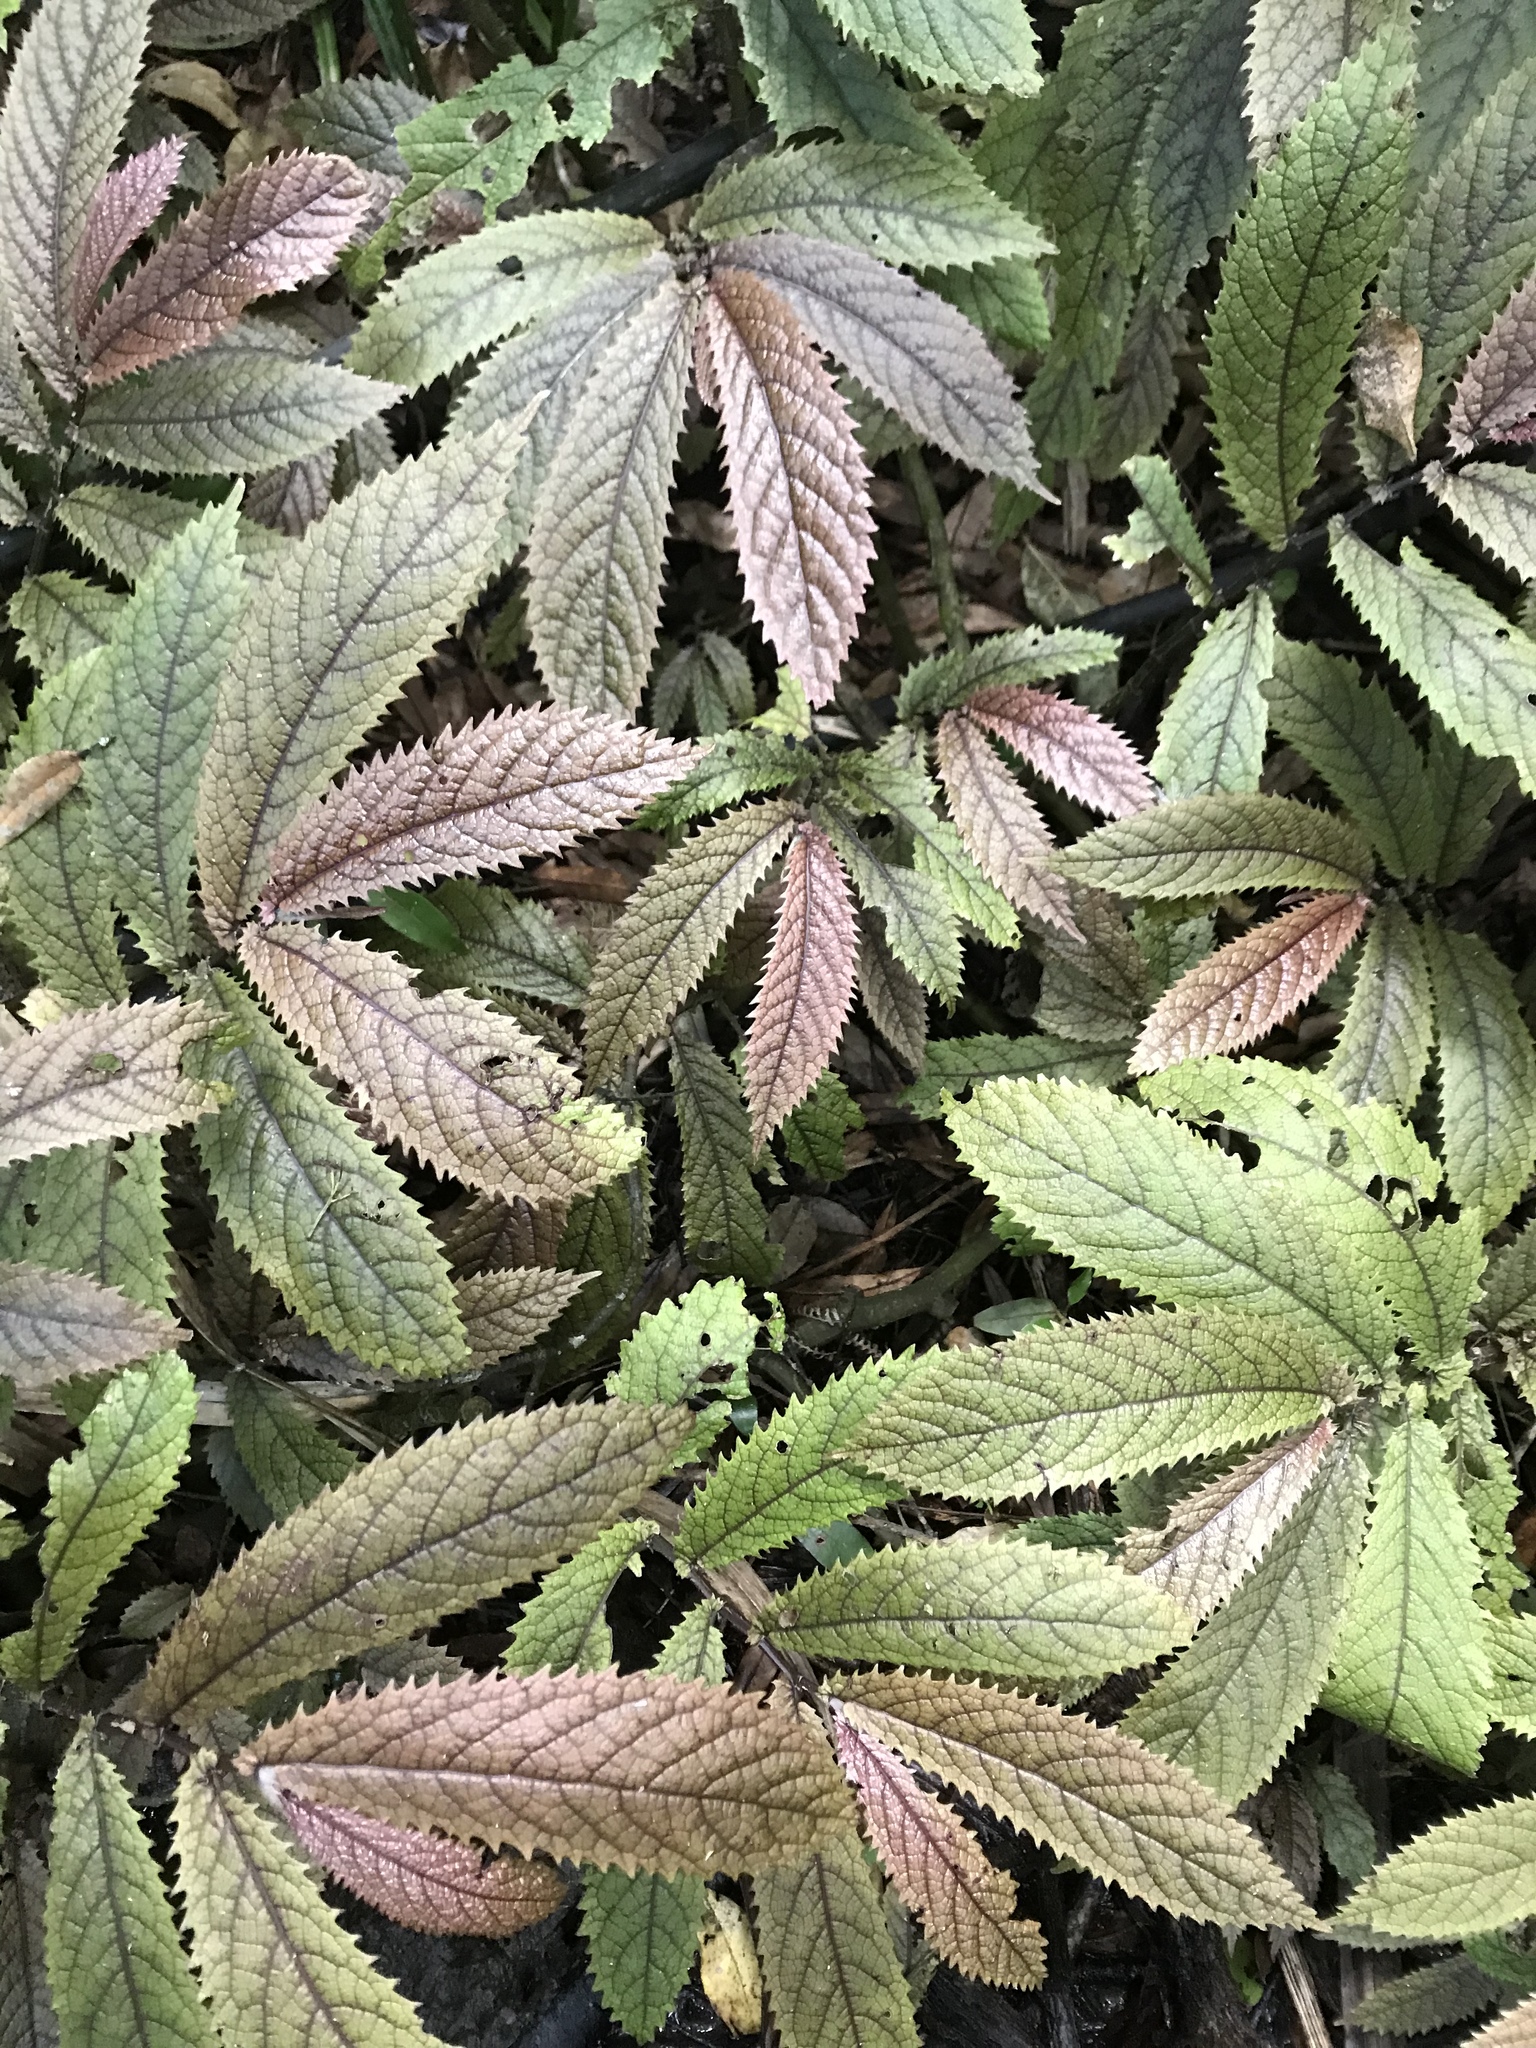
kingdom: Plantae
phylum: Tracheophyta
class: Magnoliopsida
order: Rosales
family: Urticaceae
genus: Elatostema
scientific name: Elatostema rugosum
